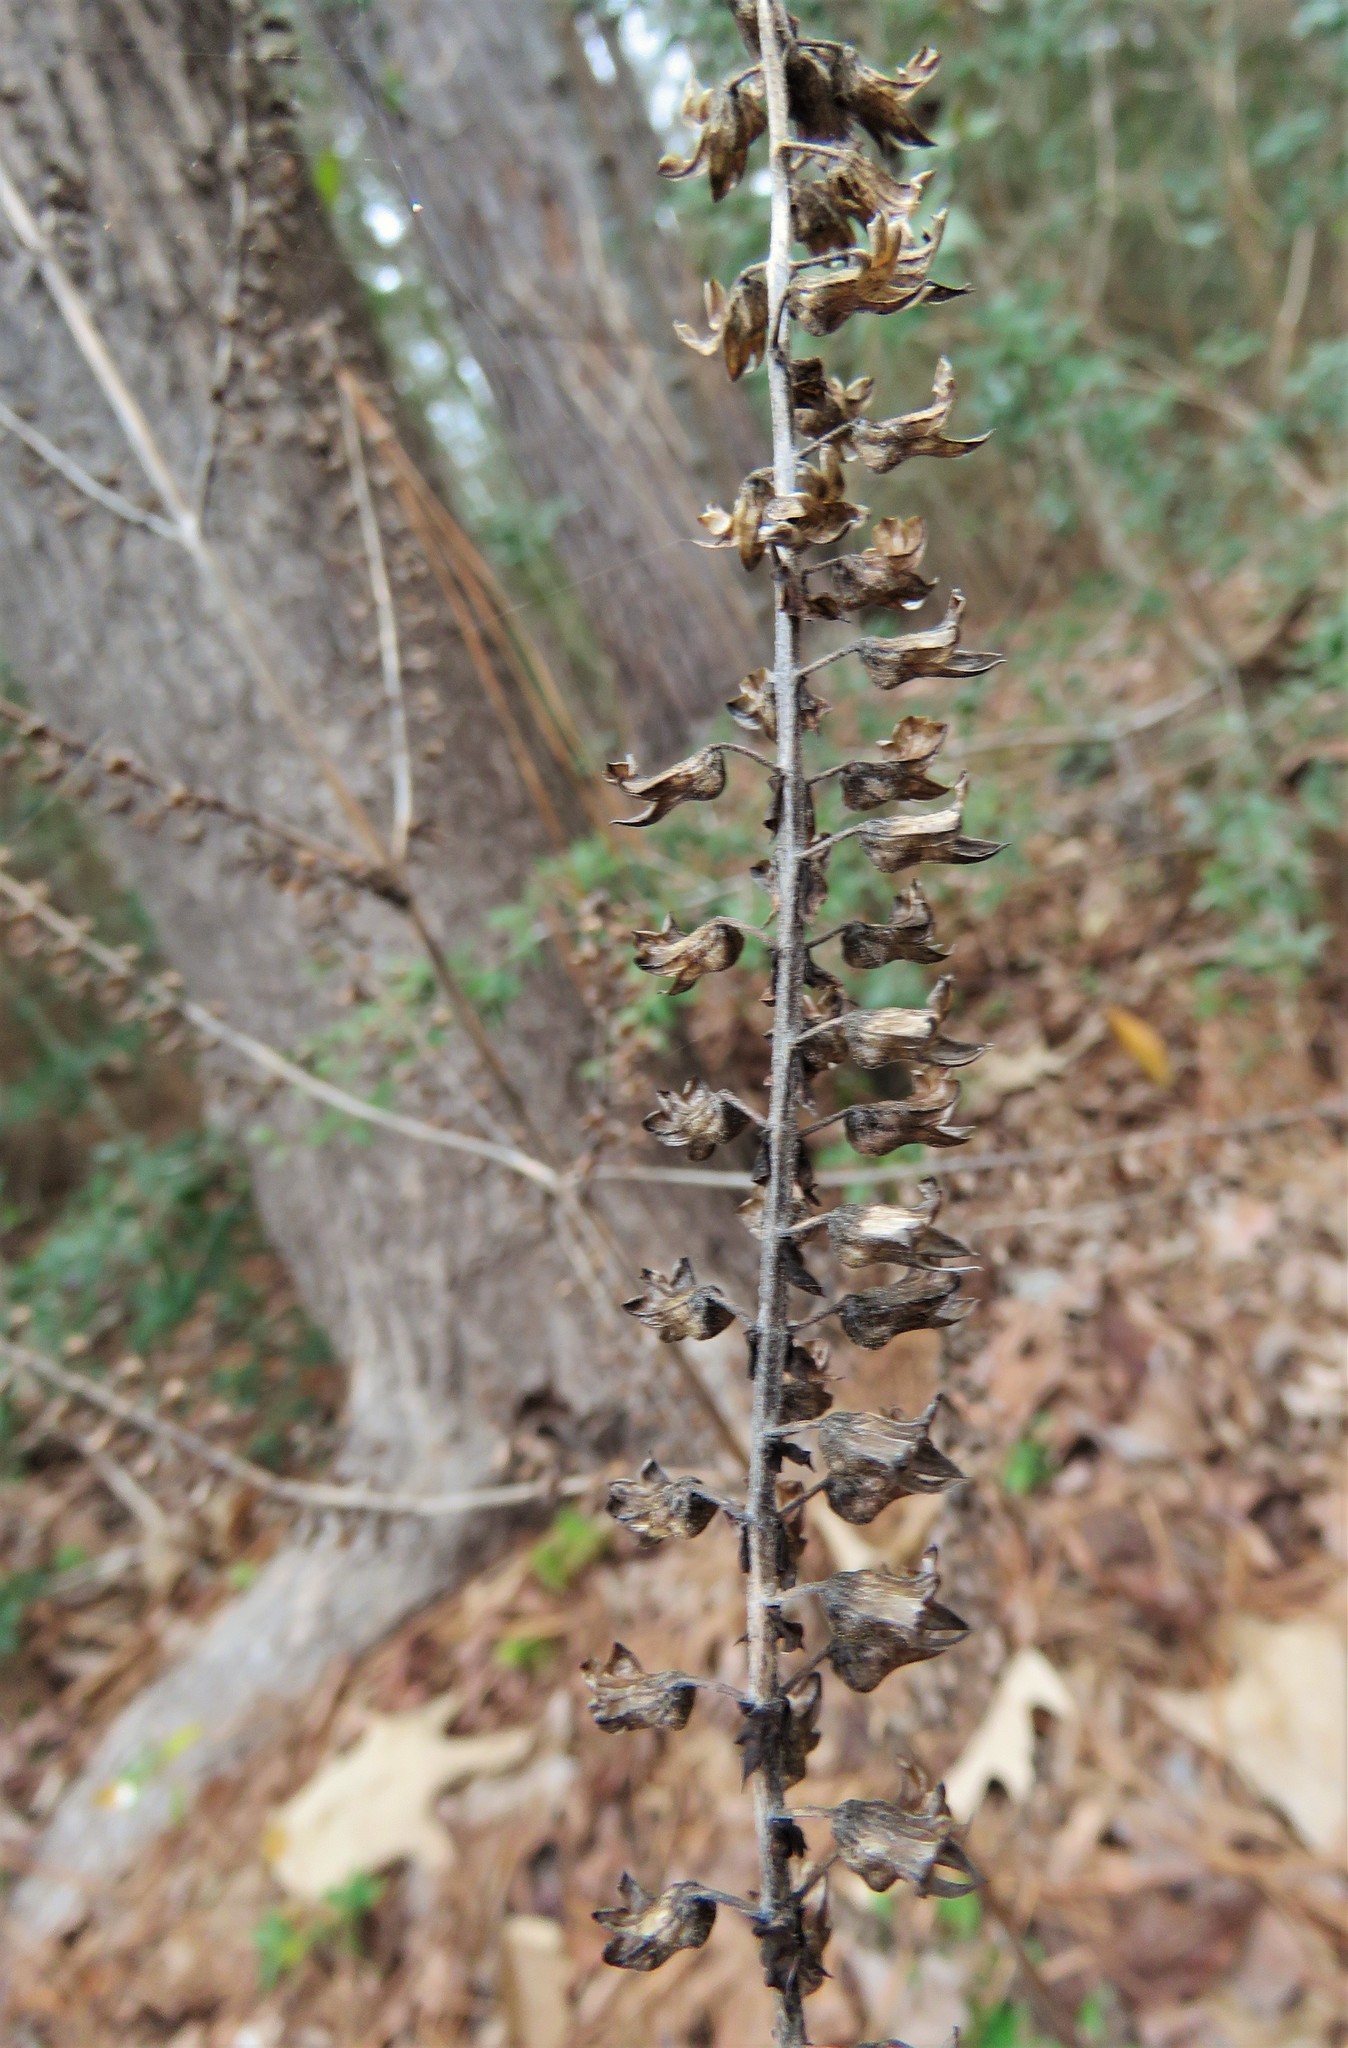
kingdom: Plantae
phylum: Tracheophyta
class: Magnoliopsida
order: Lamiales
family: Lamiaceae
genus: Perilla
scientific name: Perilla frutescens
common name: Perilla
